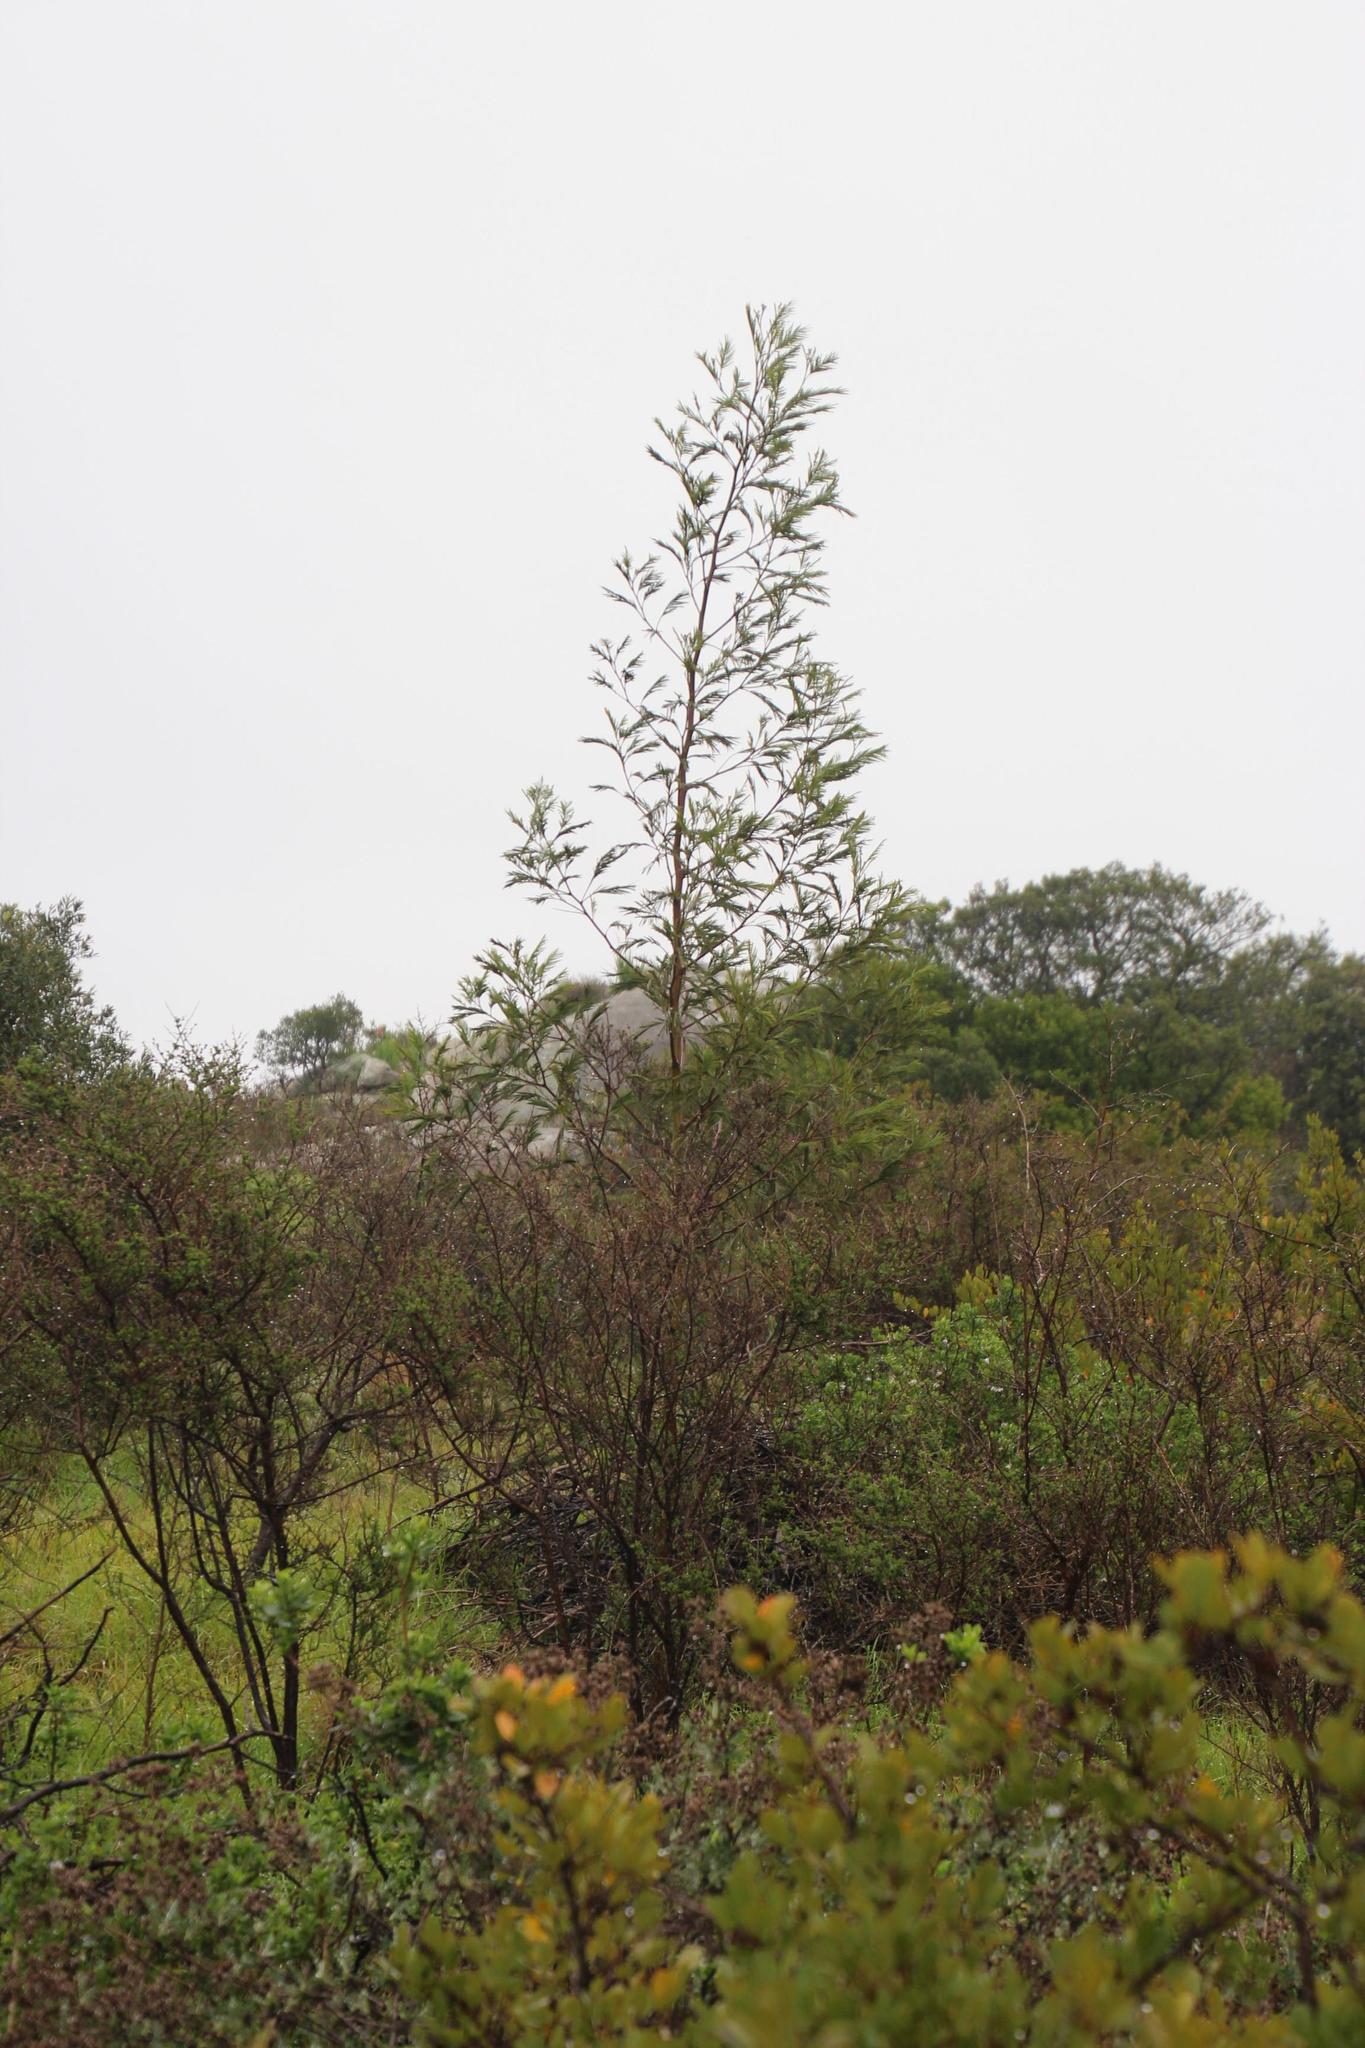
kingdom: Plantae
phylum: Tracheophyta
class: Magnoliopsida
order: Fabales
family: Fabaceae
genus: Acacia
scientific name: Acacia mearnsii
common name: Black wattle
